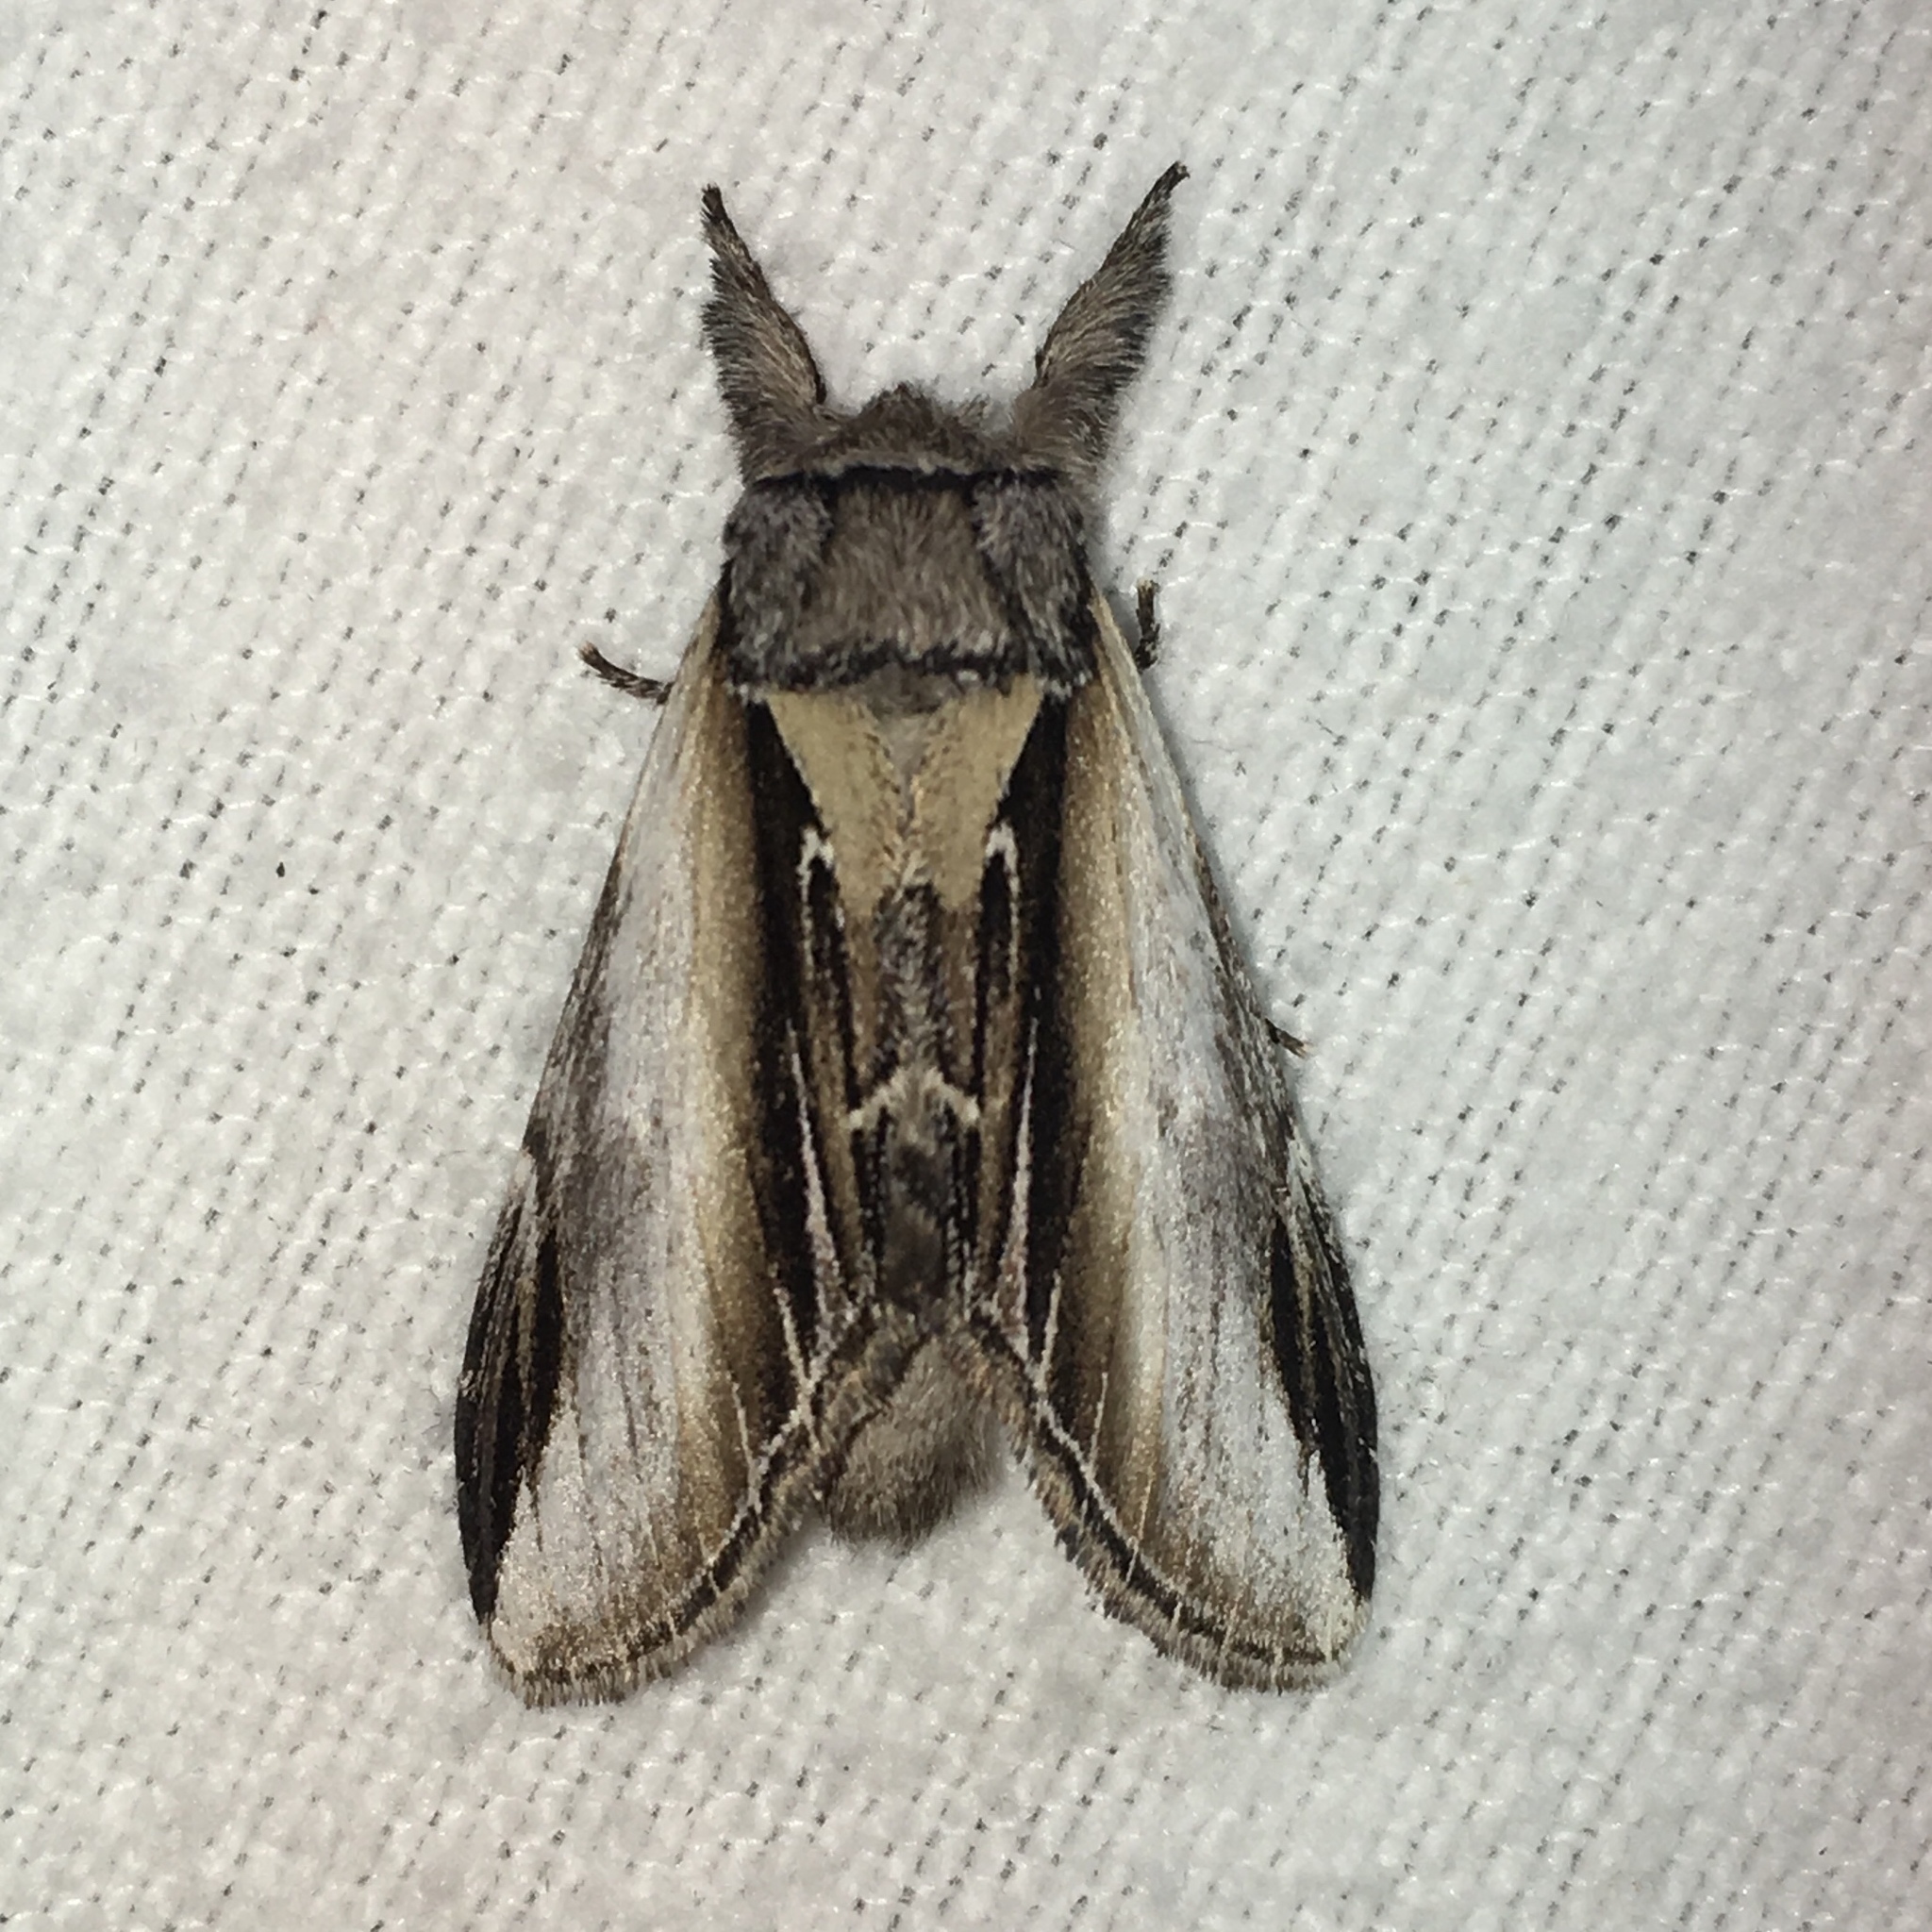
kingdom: Animalia
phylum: Arthropoda
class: Insecta
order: Lepidoptera
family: Notodontidae
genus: Pheosia
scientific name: Pheosia rimosa
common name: Black-rimmed prominent
